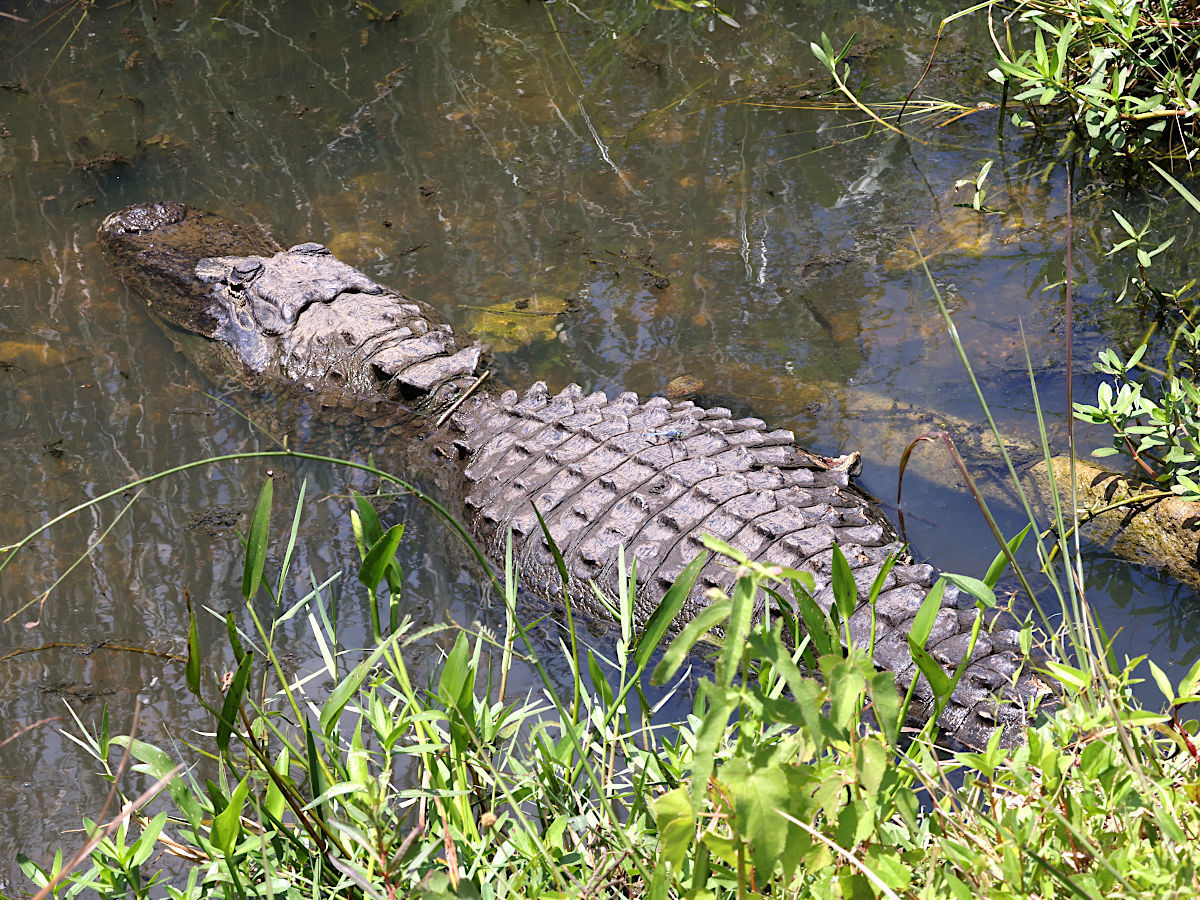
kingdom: Animalia
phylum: Chordata
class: Crocodylia
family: Alligatoridae
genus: Alligator
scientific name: Alligator mississippiensis
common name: American alligator
